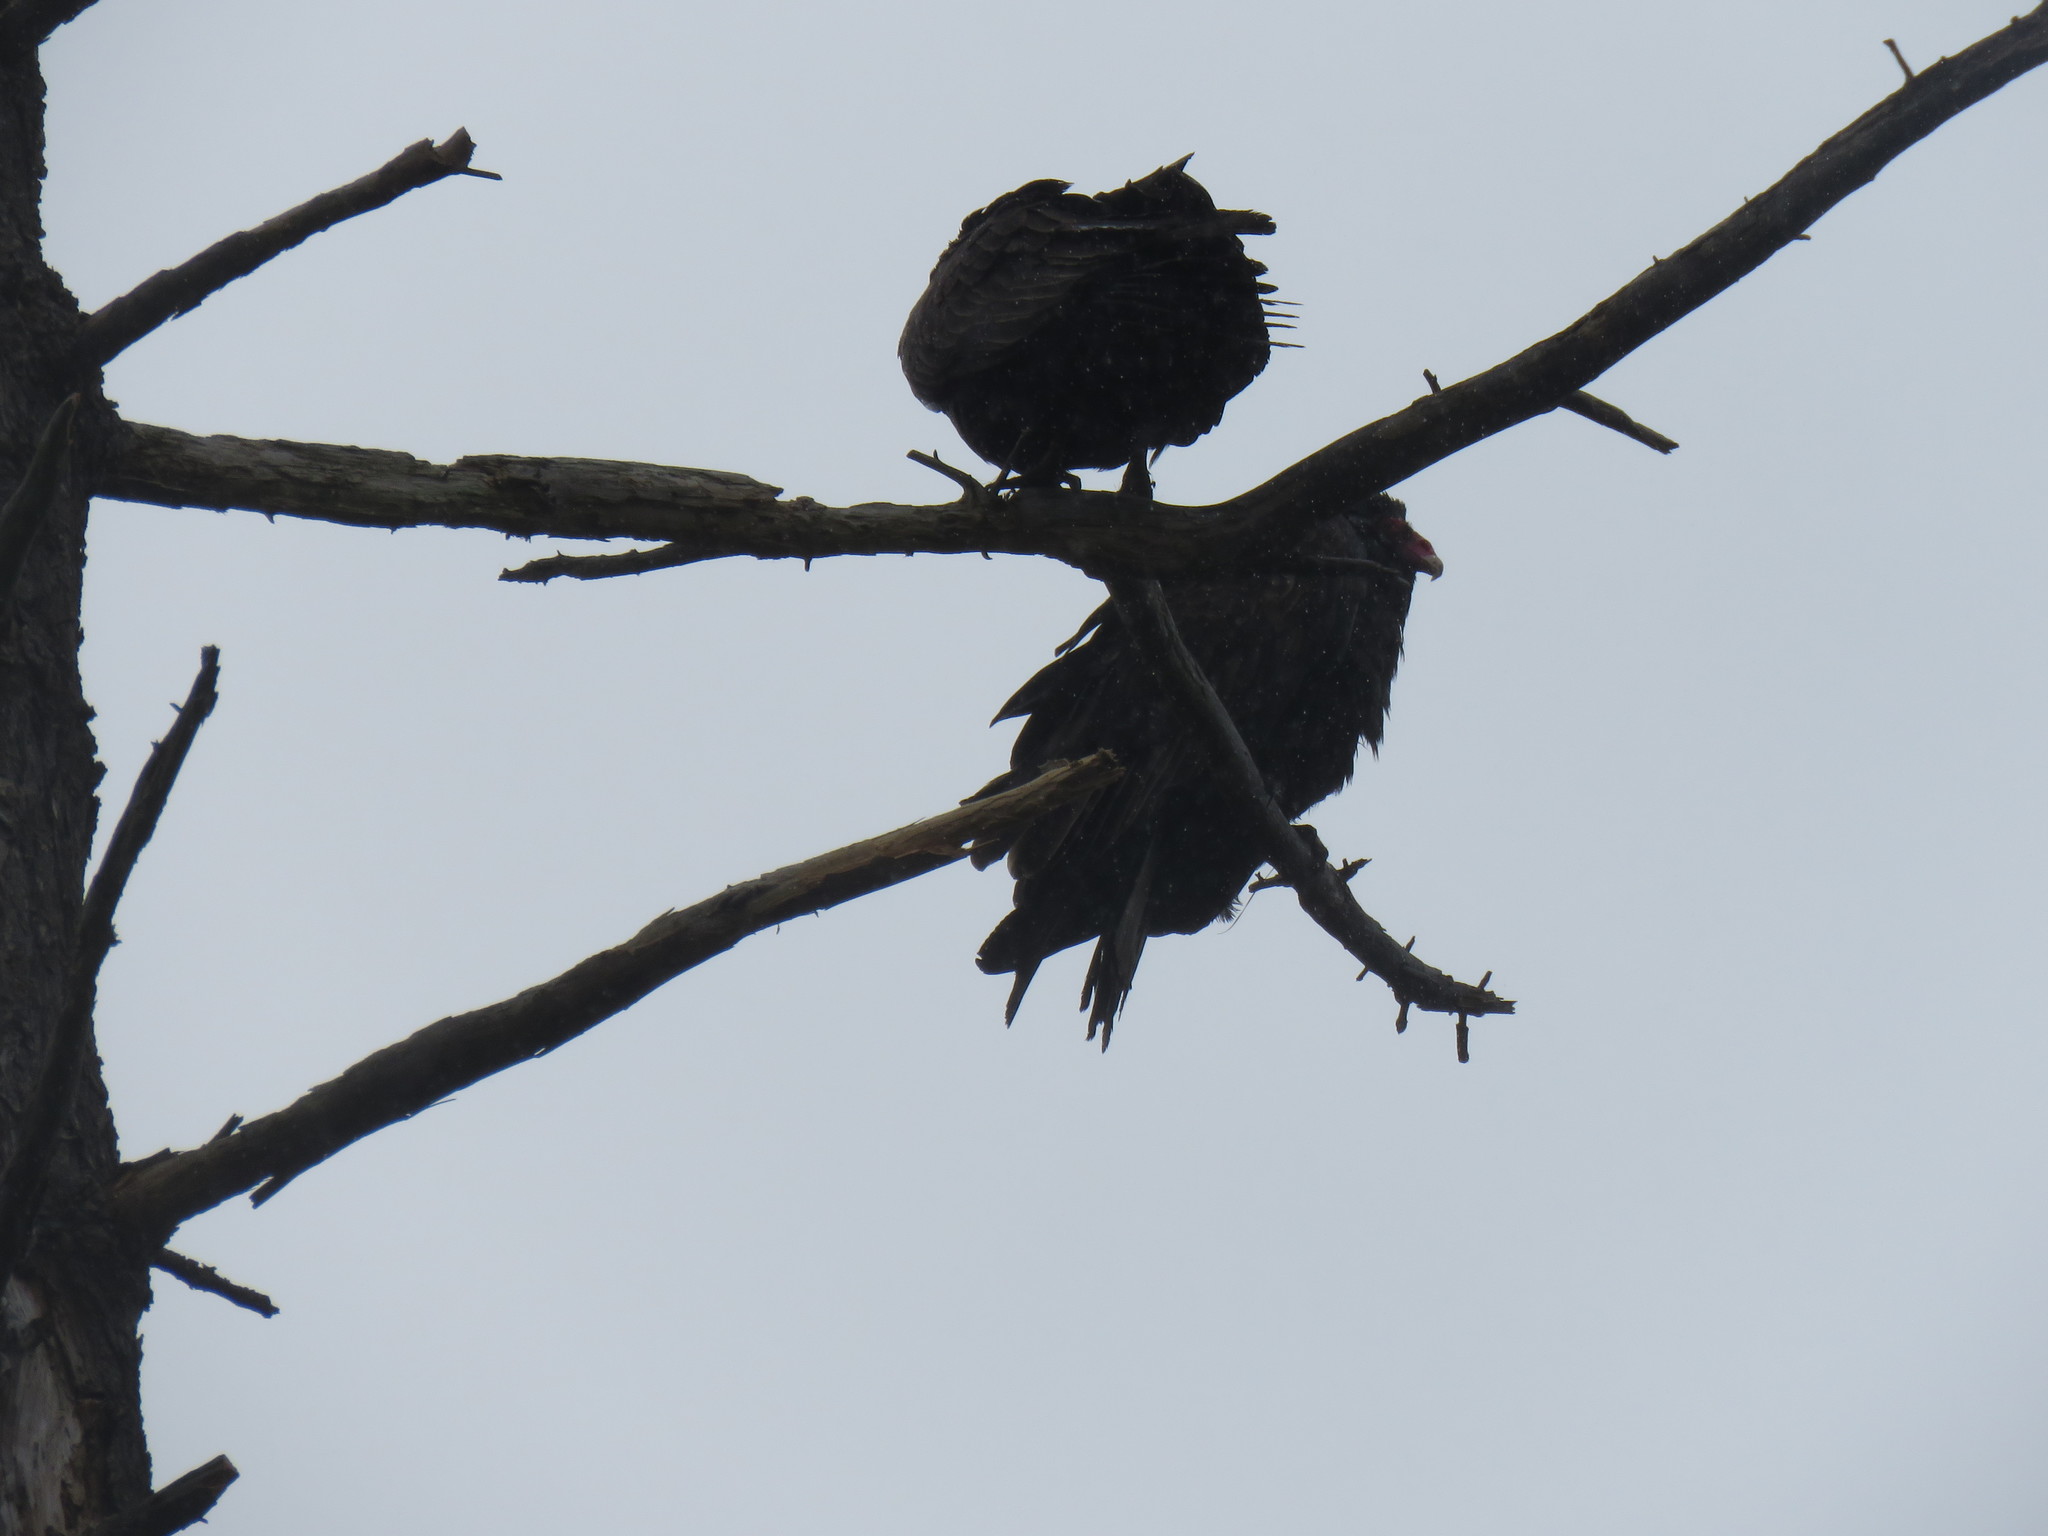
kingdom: Animalia
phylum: Chordata
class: Aves
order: Accipitriformes
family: Cathartidae
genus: Cathartes
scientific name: Cathartes aura
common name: Turkey vulture
